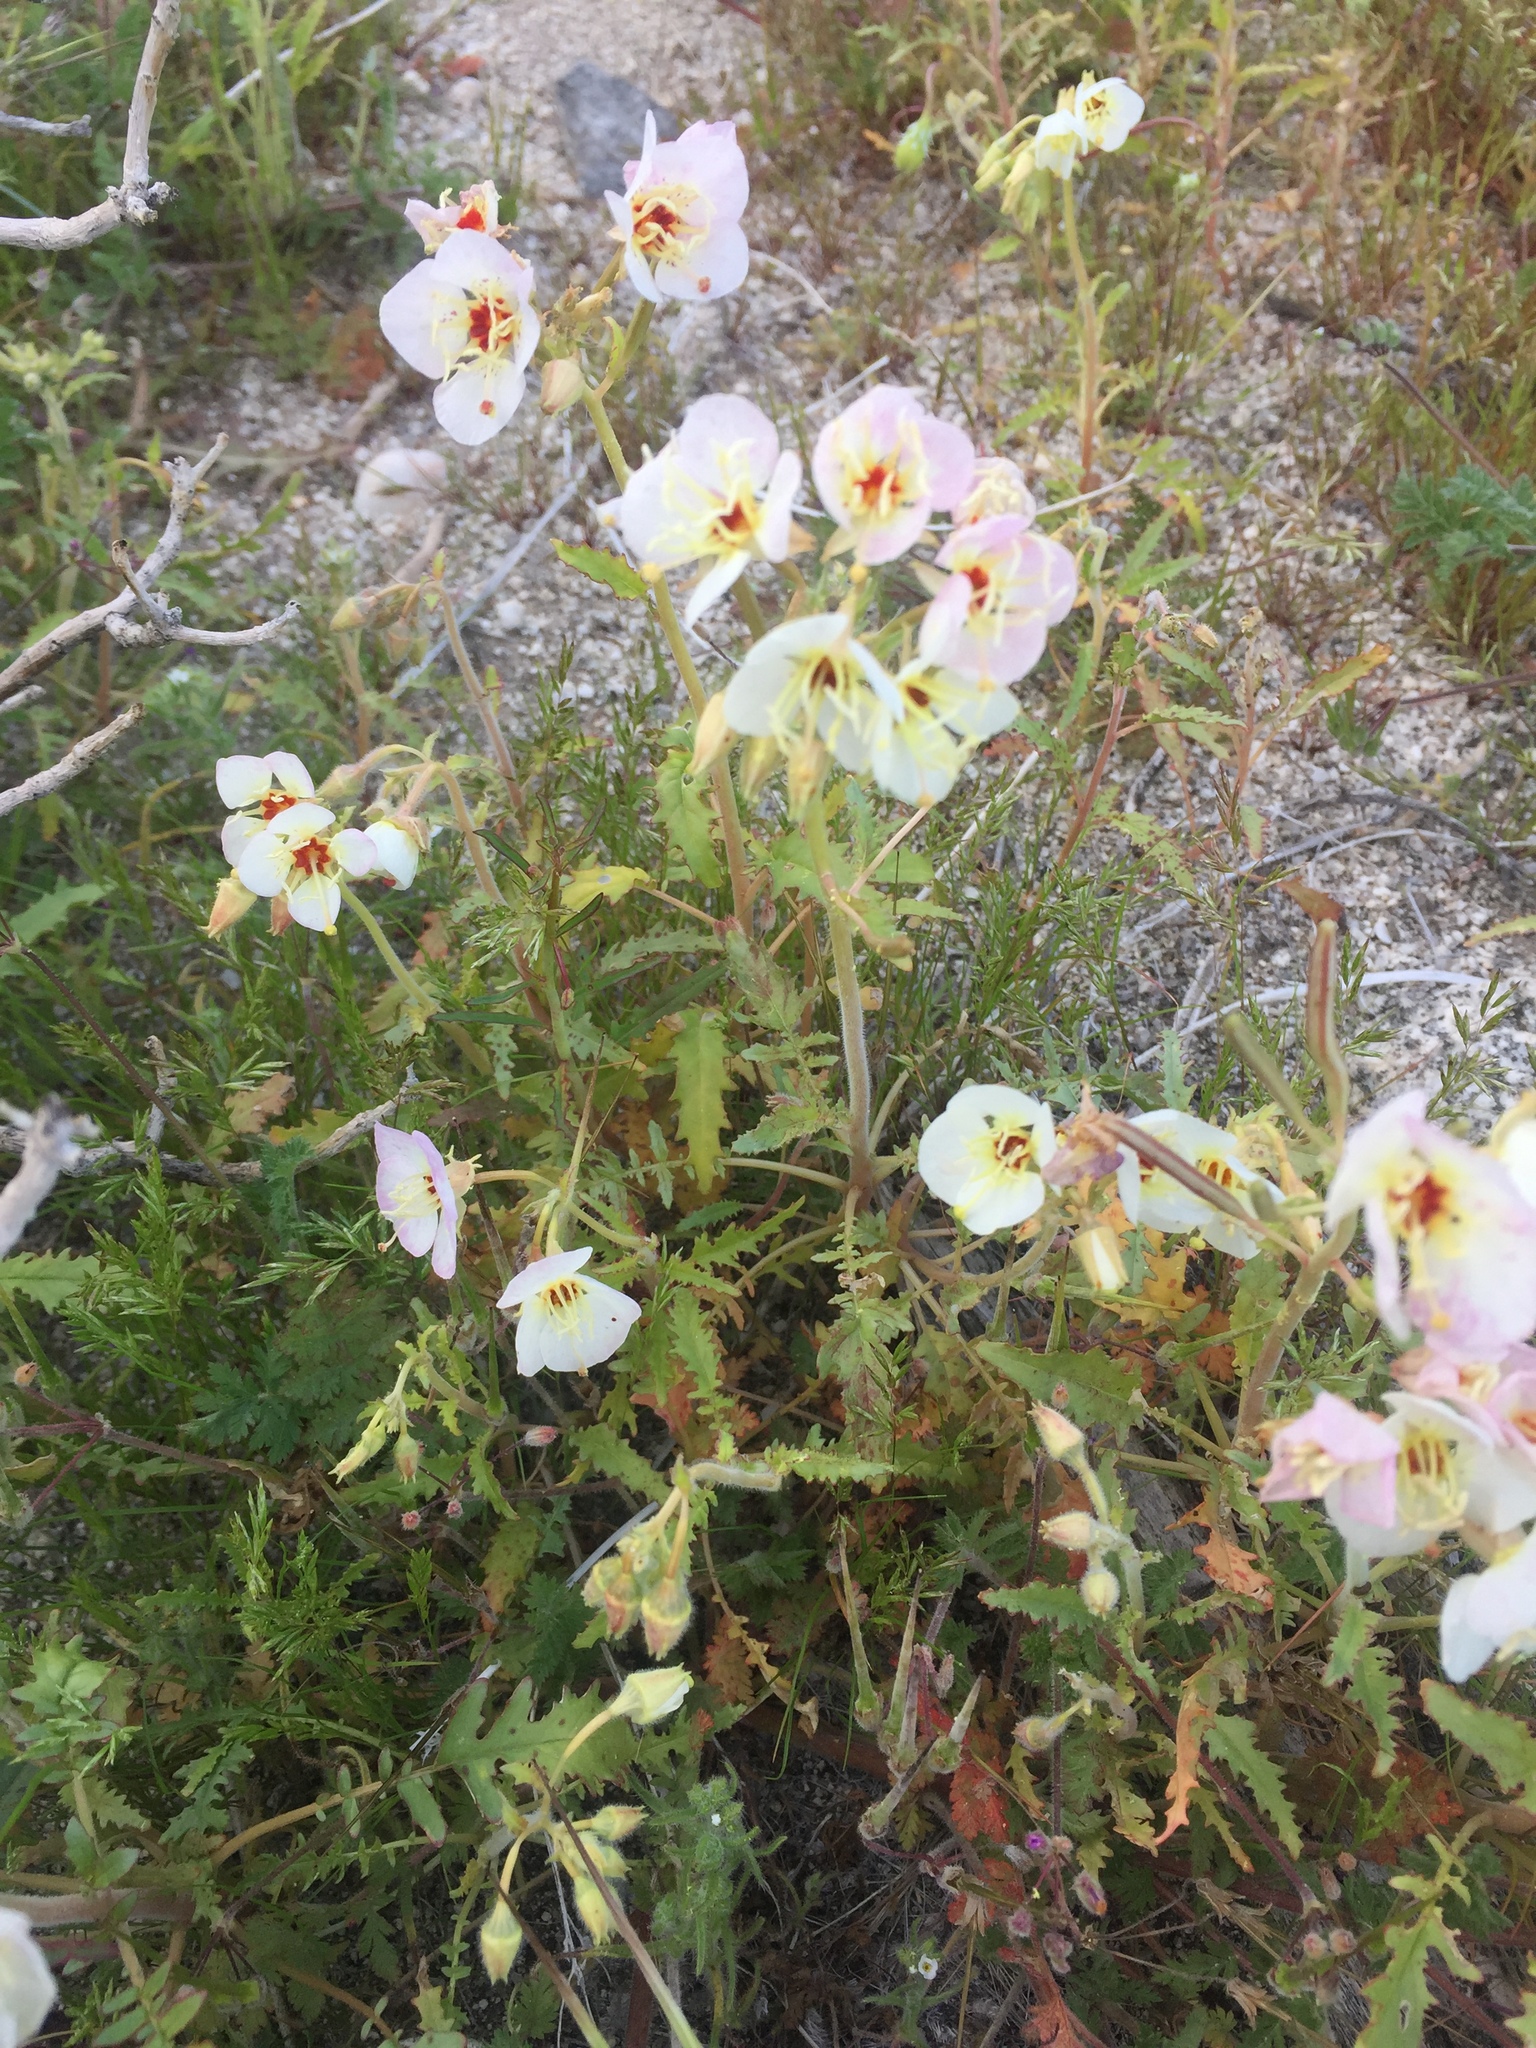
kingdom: Plantae
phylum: Tracheophyta
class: Magnoliopsida
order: Myrtales
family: Onagraceae
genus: Chylismia
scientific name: Chylismia claviformis
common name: Browneyes
